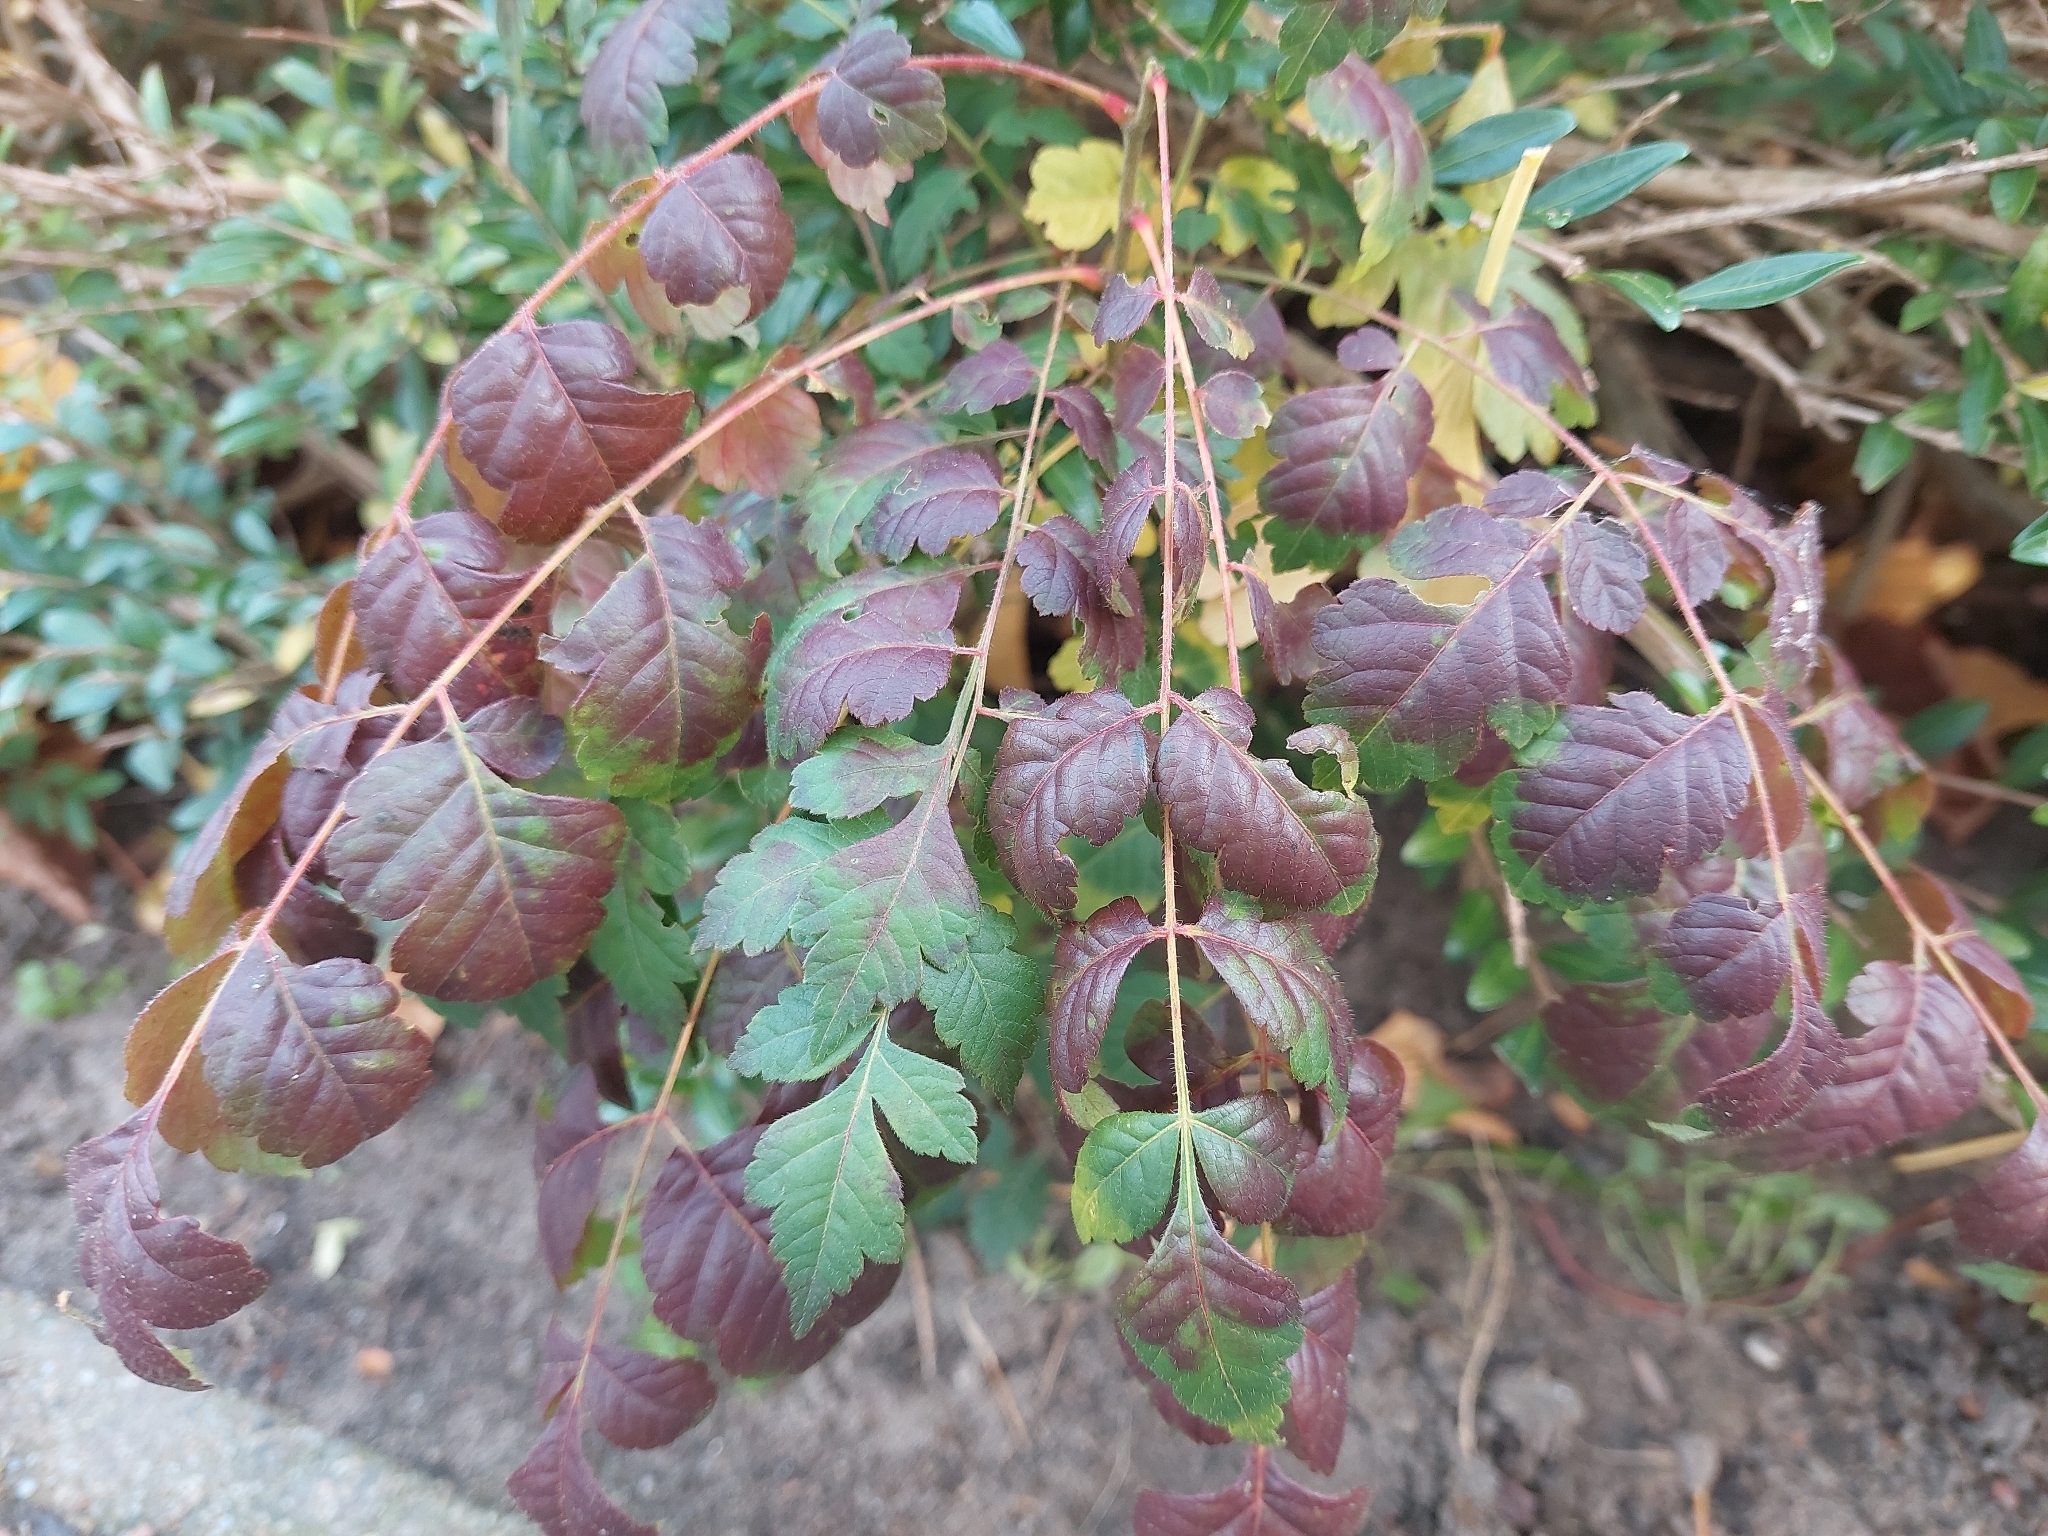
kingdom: Plantae
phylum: Tracheophyta
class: Magnoliopsida
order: Sapindales
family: Sapindaceae
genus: Koelreuteria
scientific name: Koelreuteria paniculata
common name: Pride-of-india
